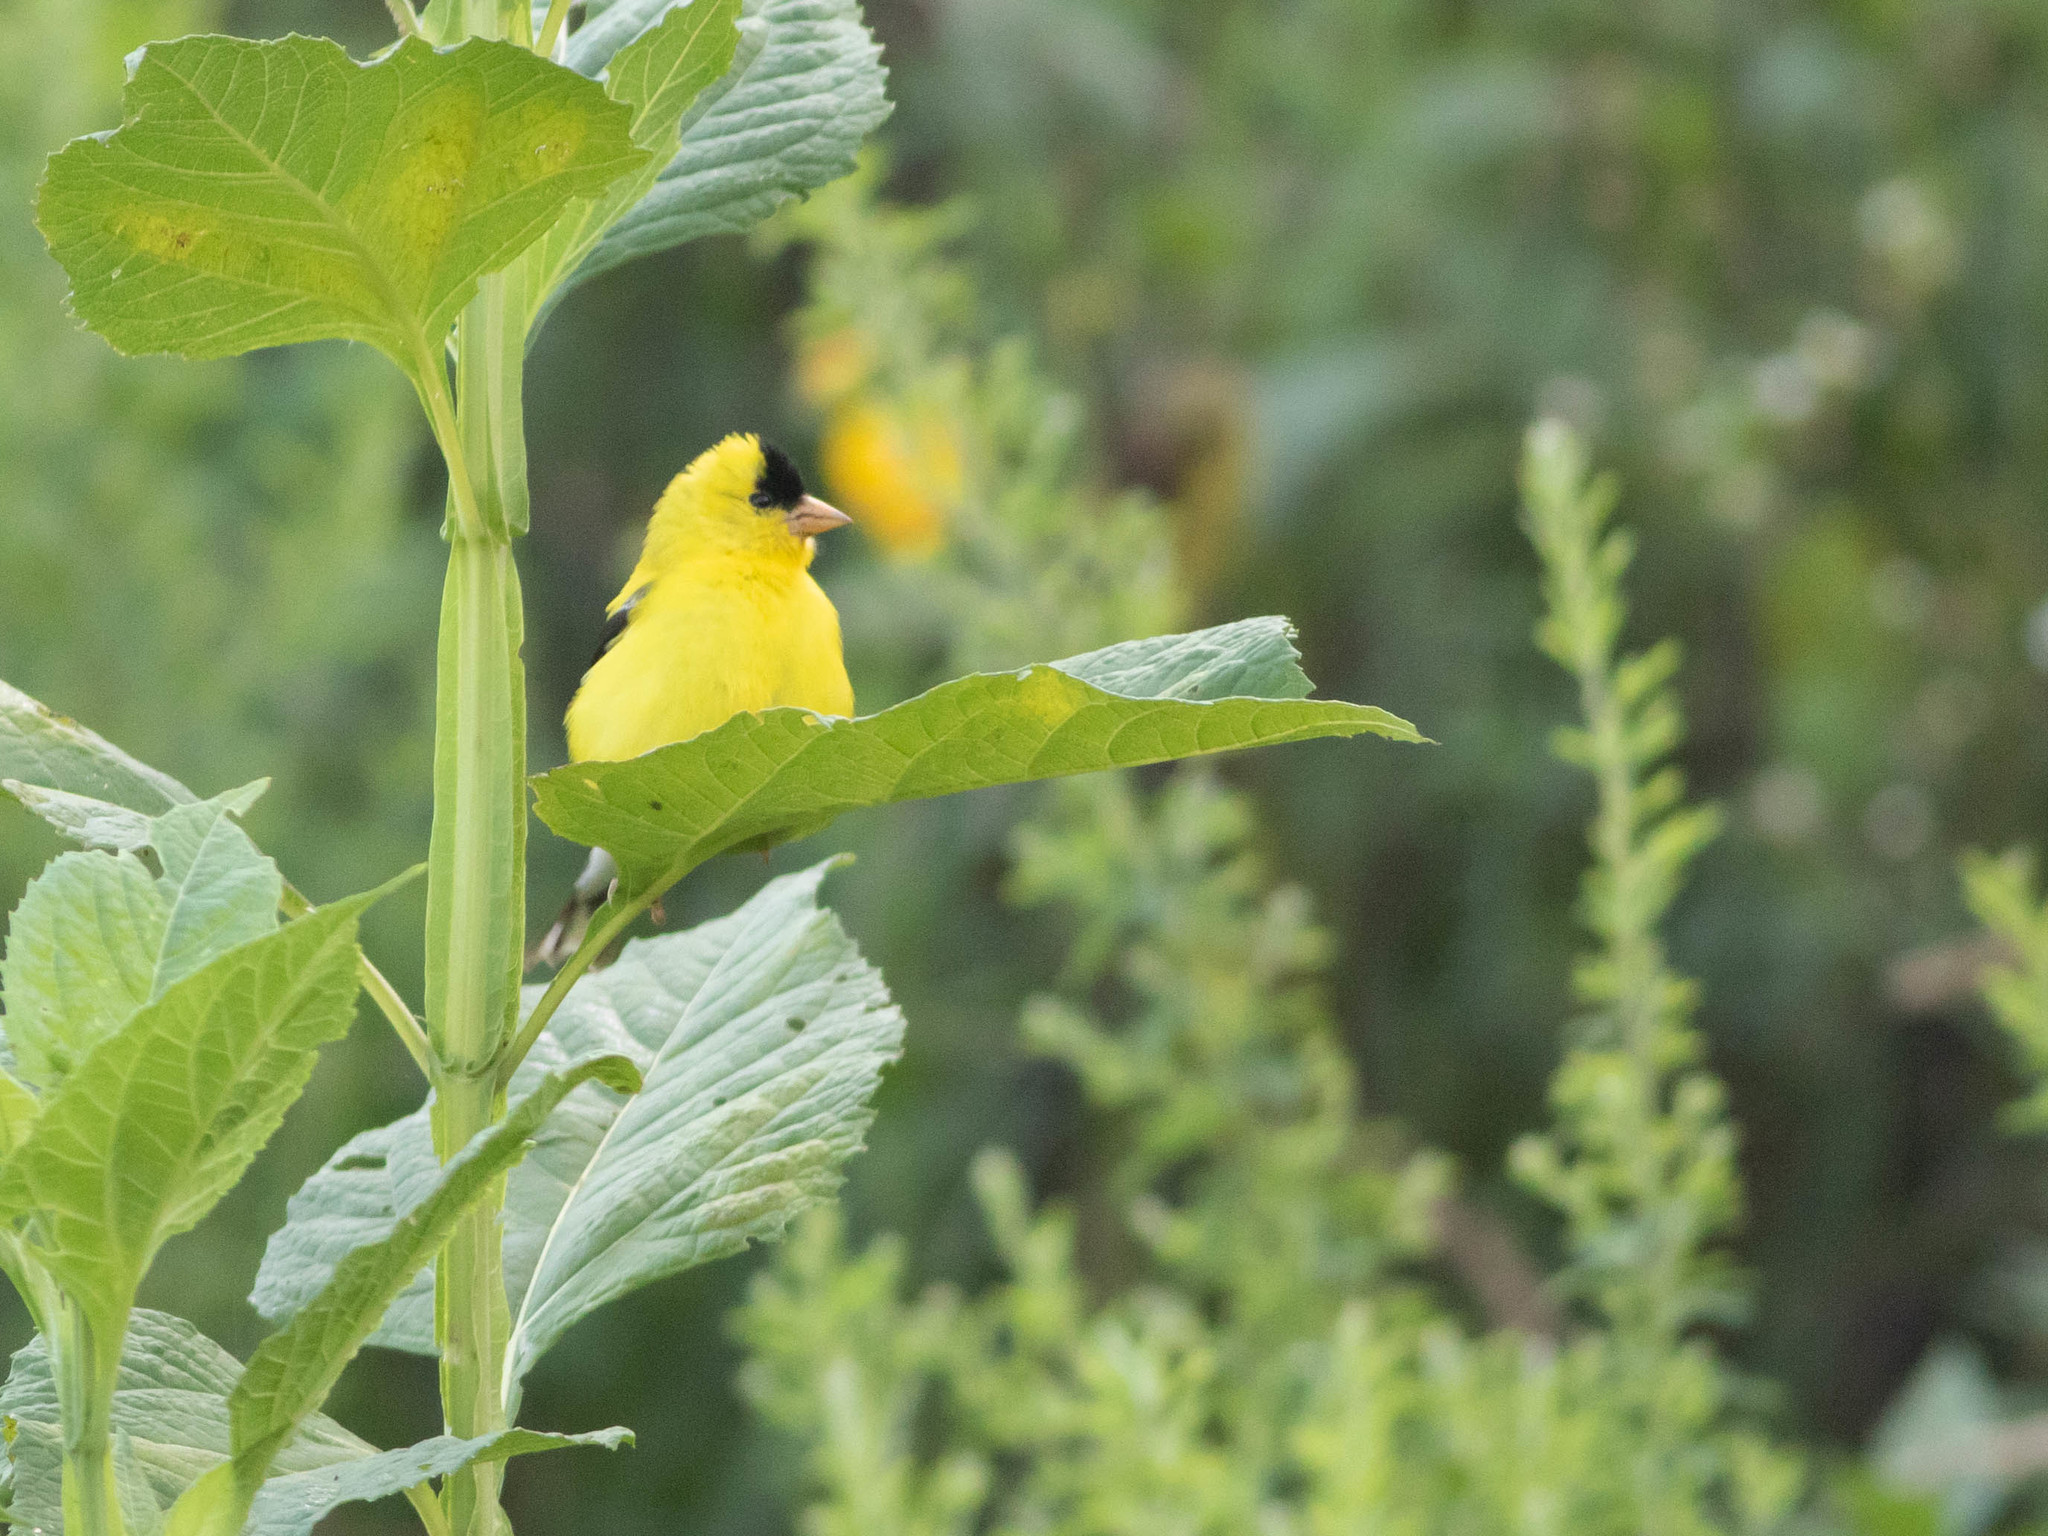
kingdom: Animalia
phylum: Chordata
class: Aves
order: Passeriformes
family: Fringillidae
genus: Spinus
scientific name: Spinus tristis
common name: American goldfinch
